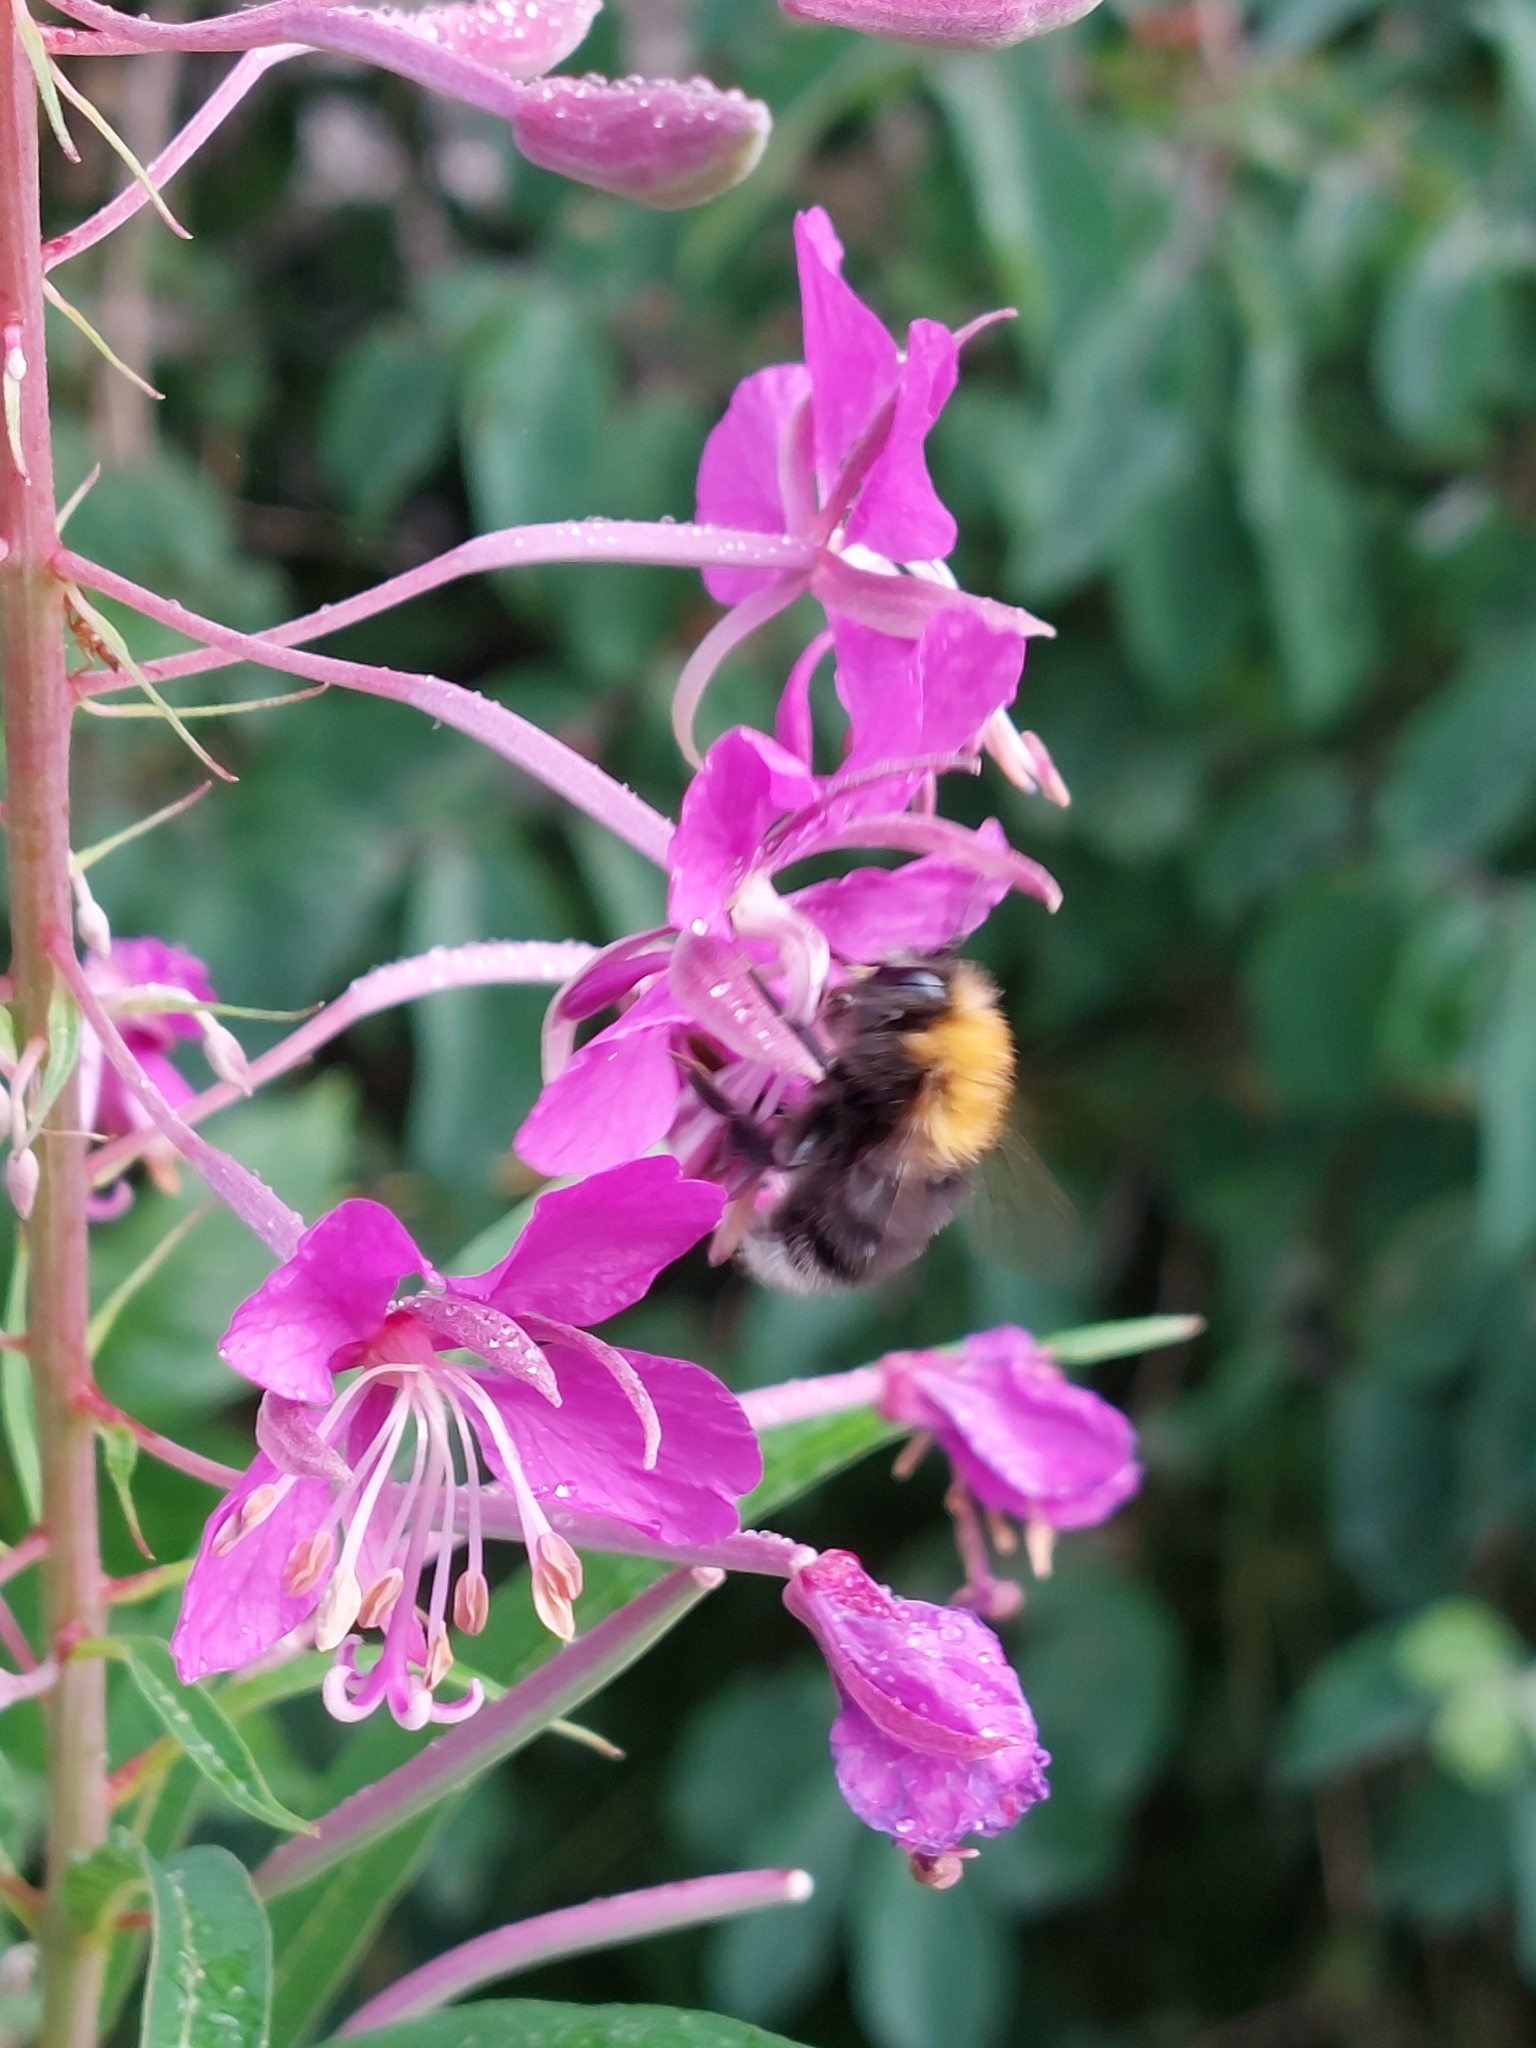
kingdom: Animalia
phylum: Arthropoda
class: Insecta
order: Hymenoptera
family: Apidae
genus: Bombus
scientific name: Bombus hypnorum
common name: New garden bumblebee
